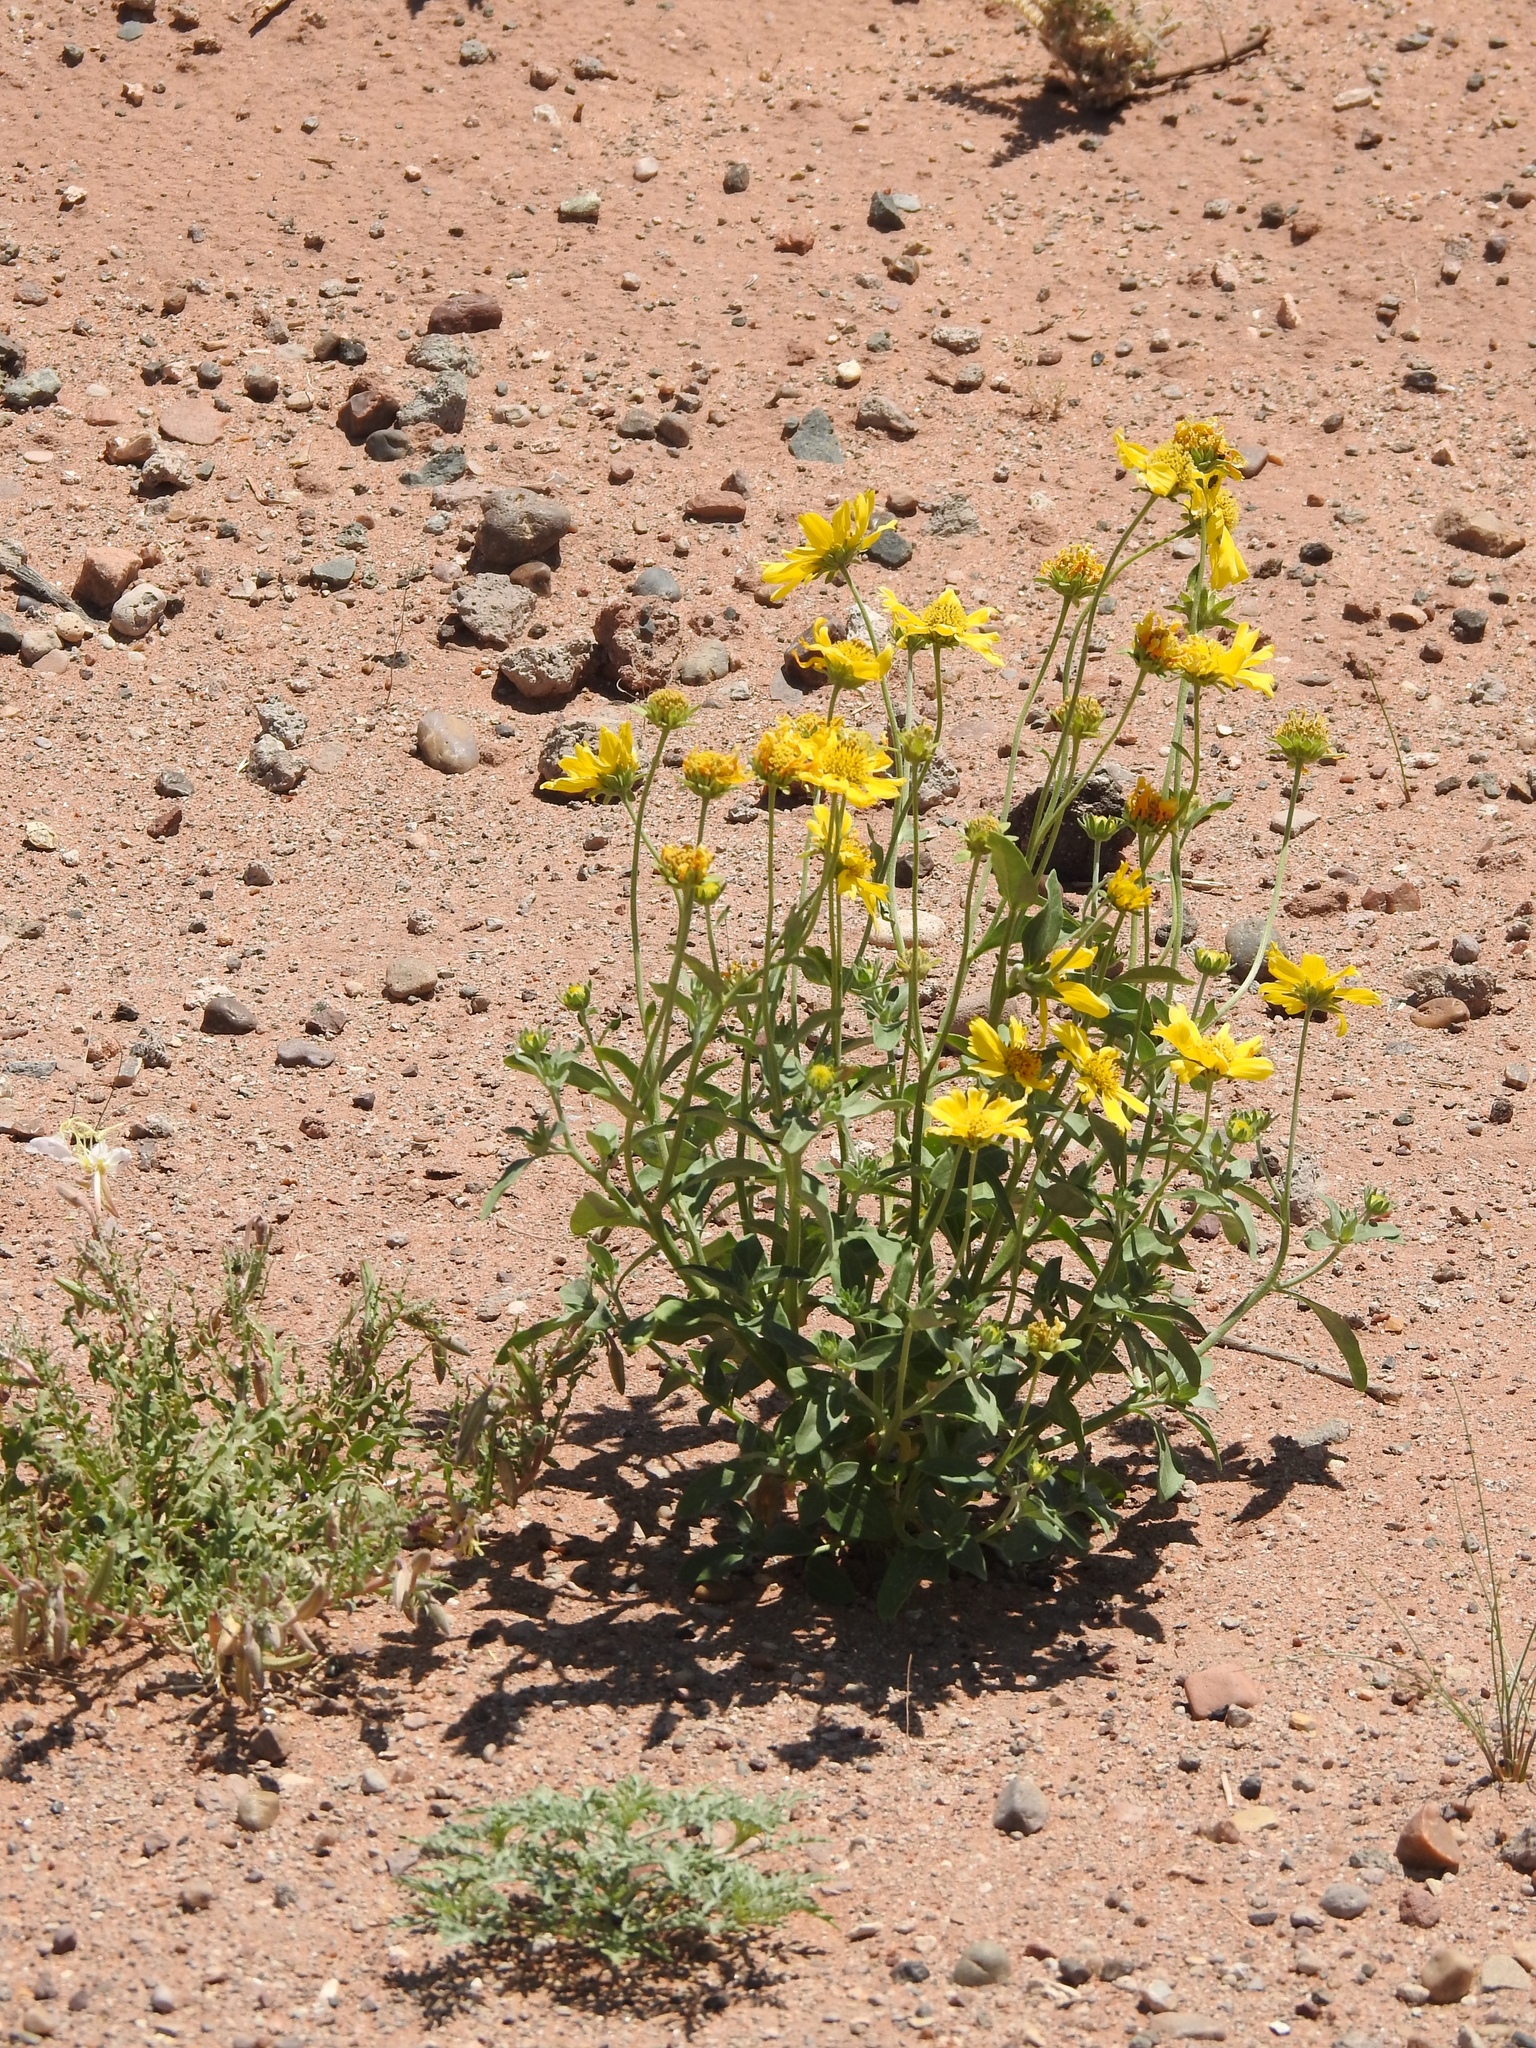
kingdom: Plantae
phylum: Tracheophyta
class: Magnoliopsida
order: Asterales
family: Asteraceae
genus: Verbesina
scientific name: Verbesina encelioides
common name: Golden crownbeard
